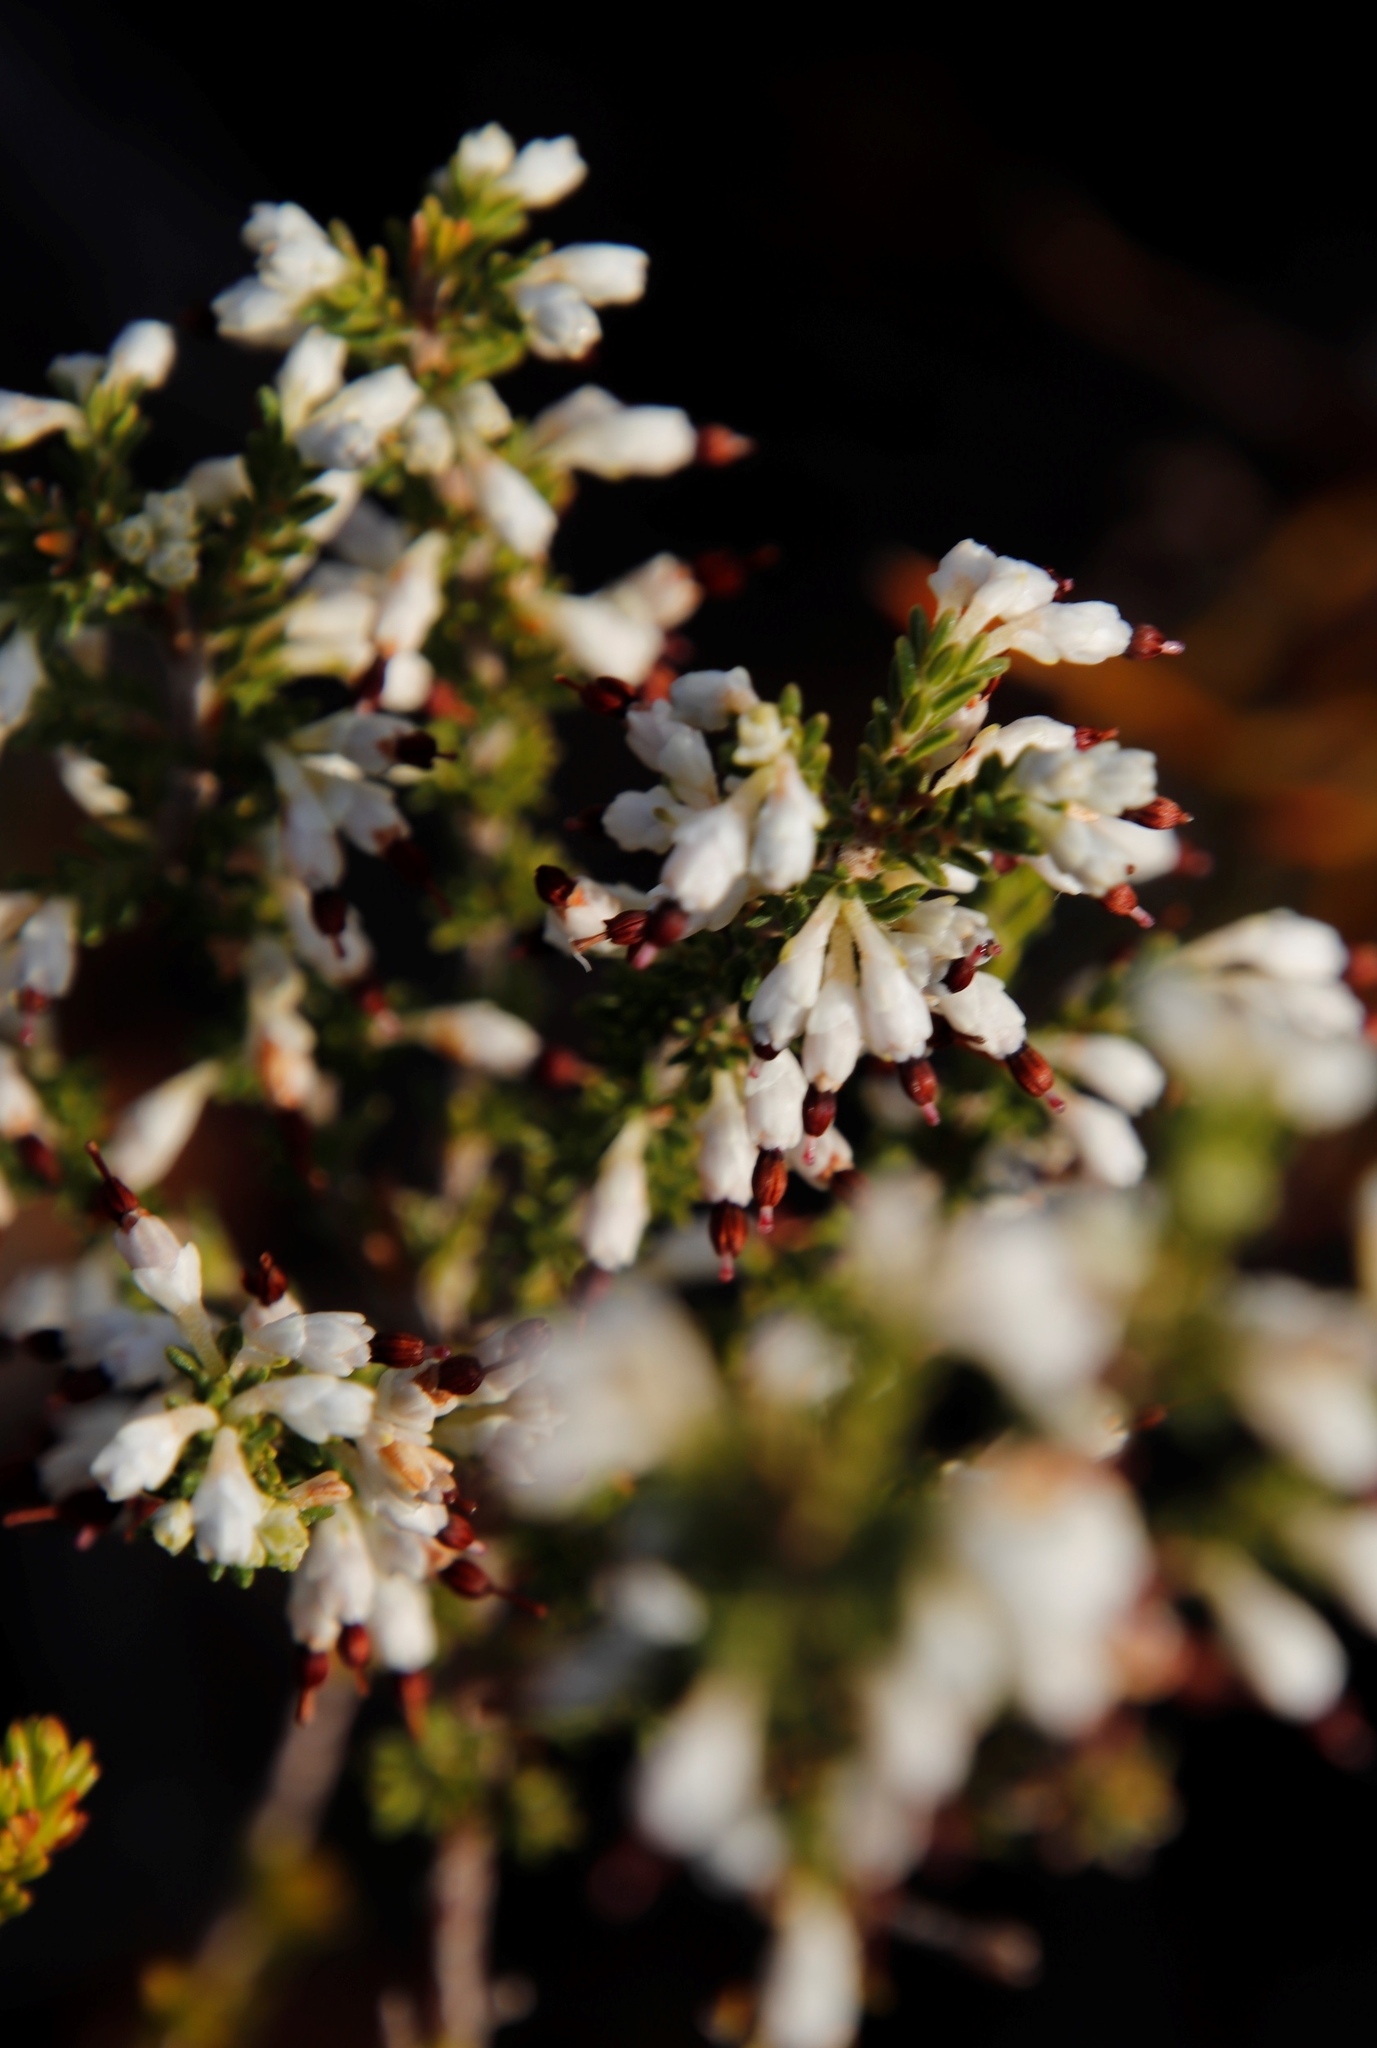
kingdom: Plantae
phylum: Tracheophyta
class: Magnoliopsida
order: Ericales
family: Ericaceae
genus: Erica
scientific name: Erica imbricata
